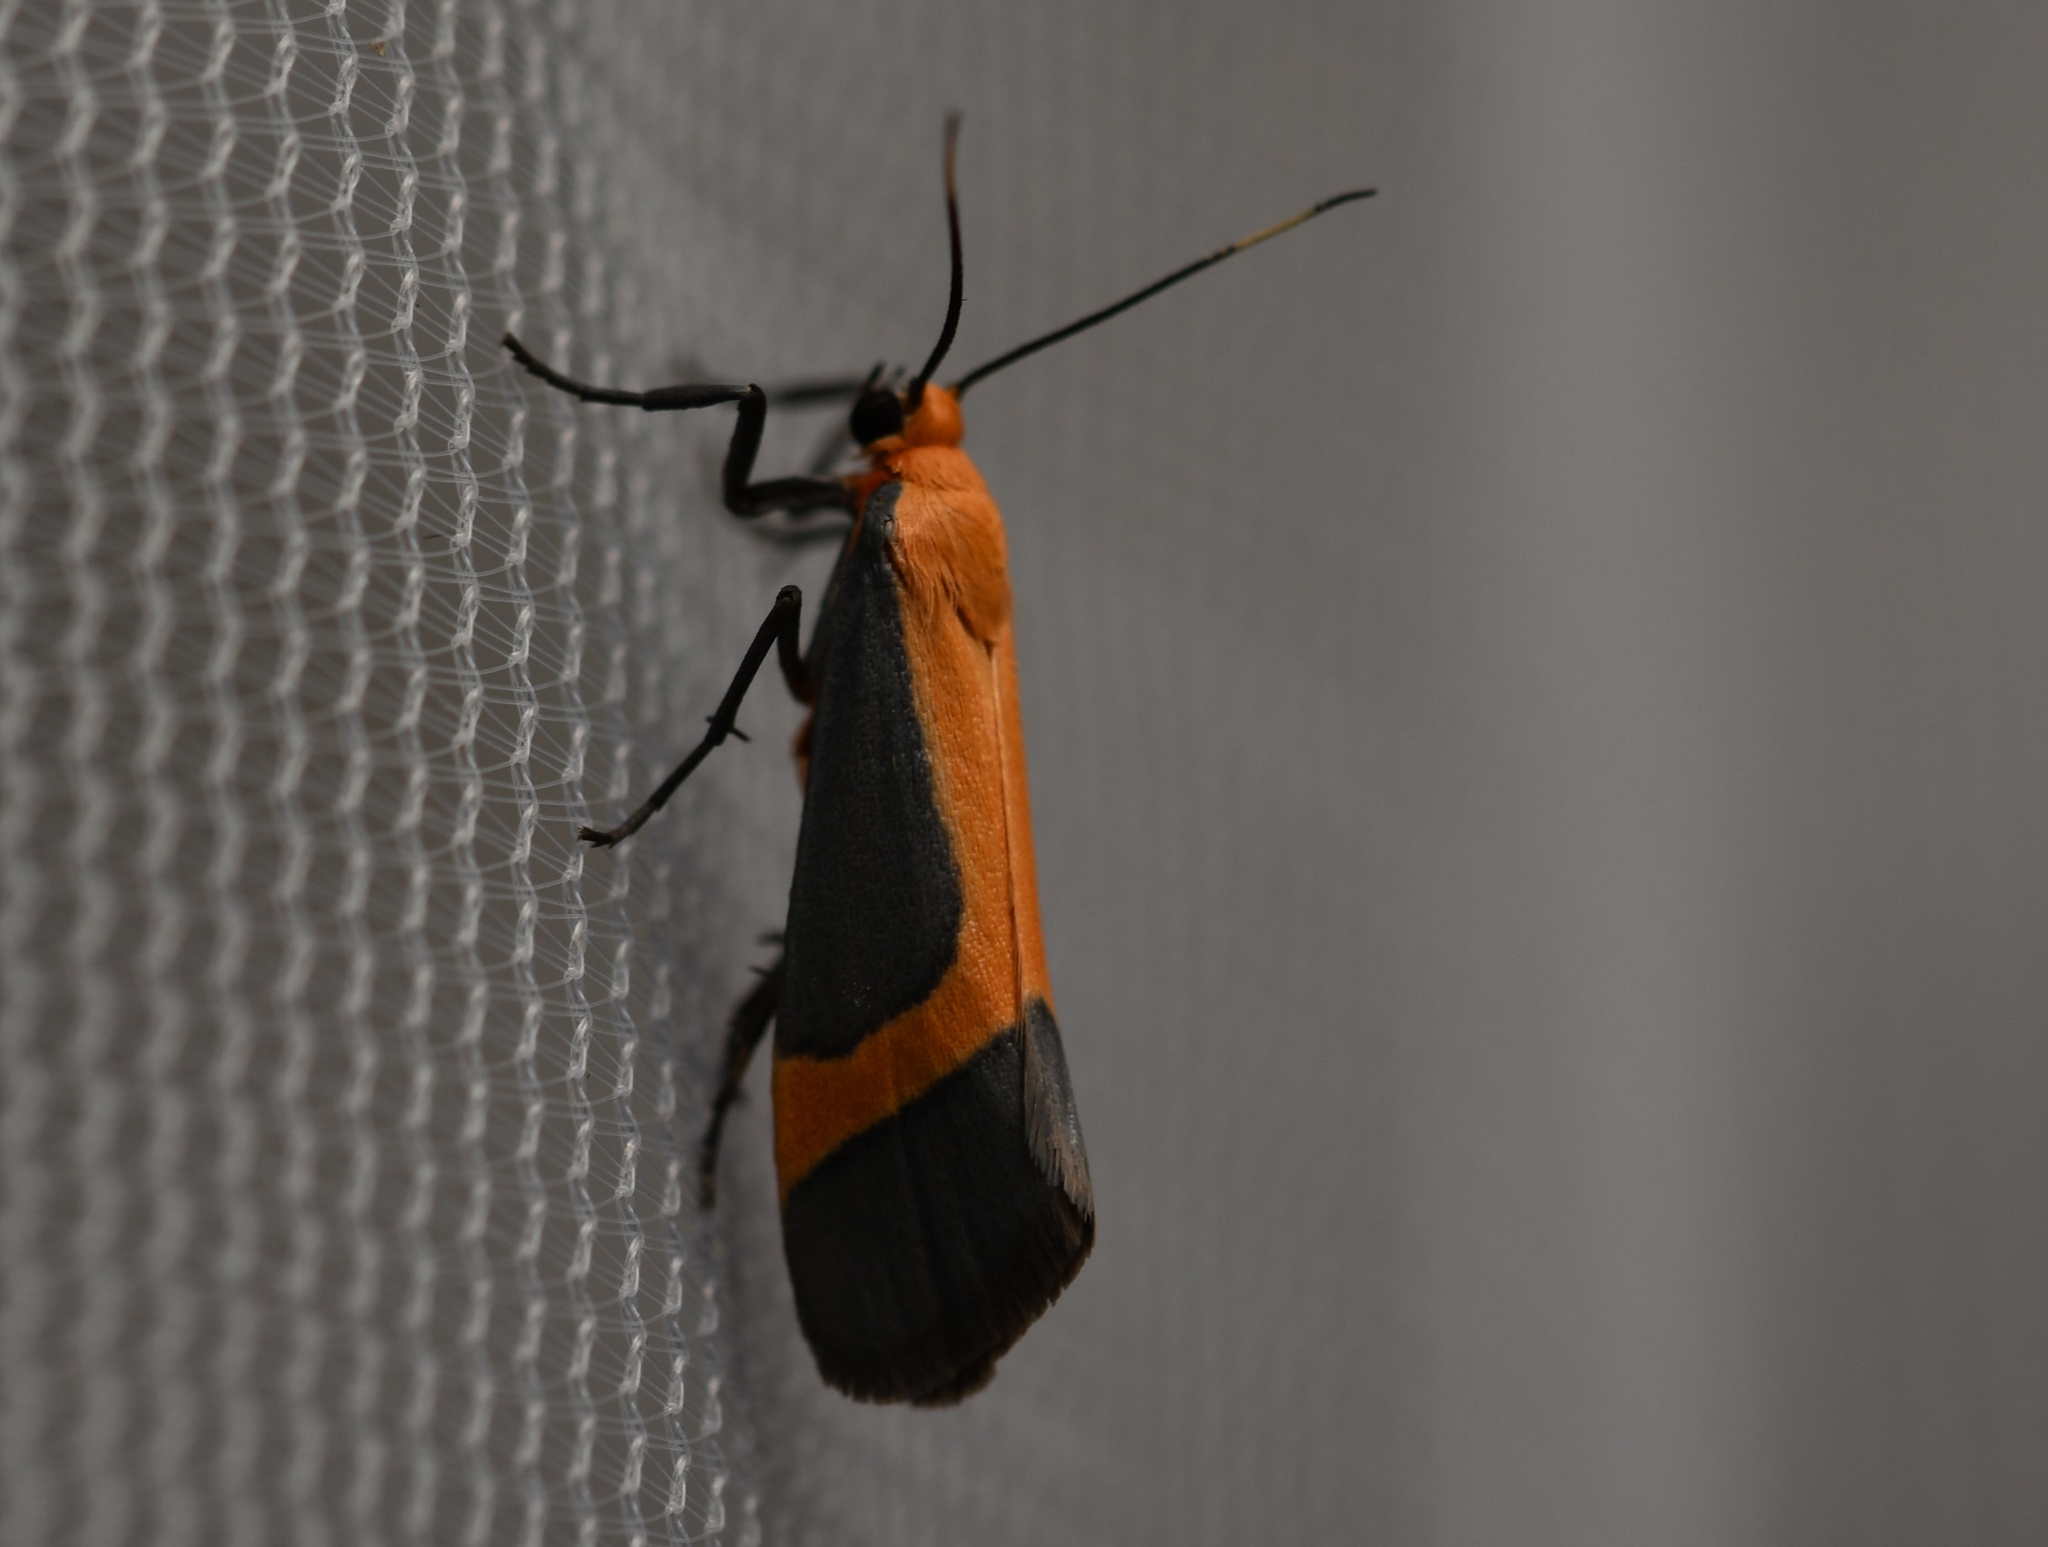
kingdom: Animalia
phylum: Arthropoda
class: Insecta
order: Lepidoptera
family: Erebidae
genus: Cisthene
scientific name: Cisthene angelus
